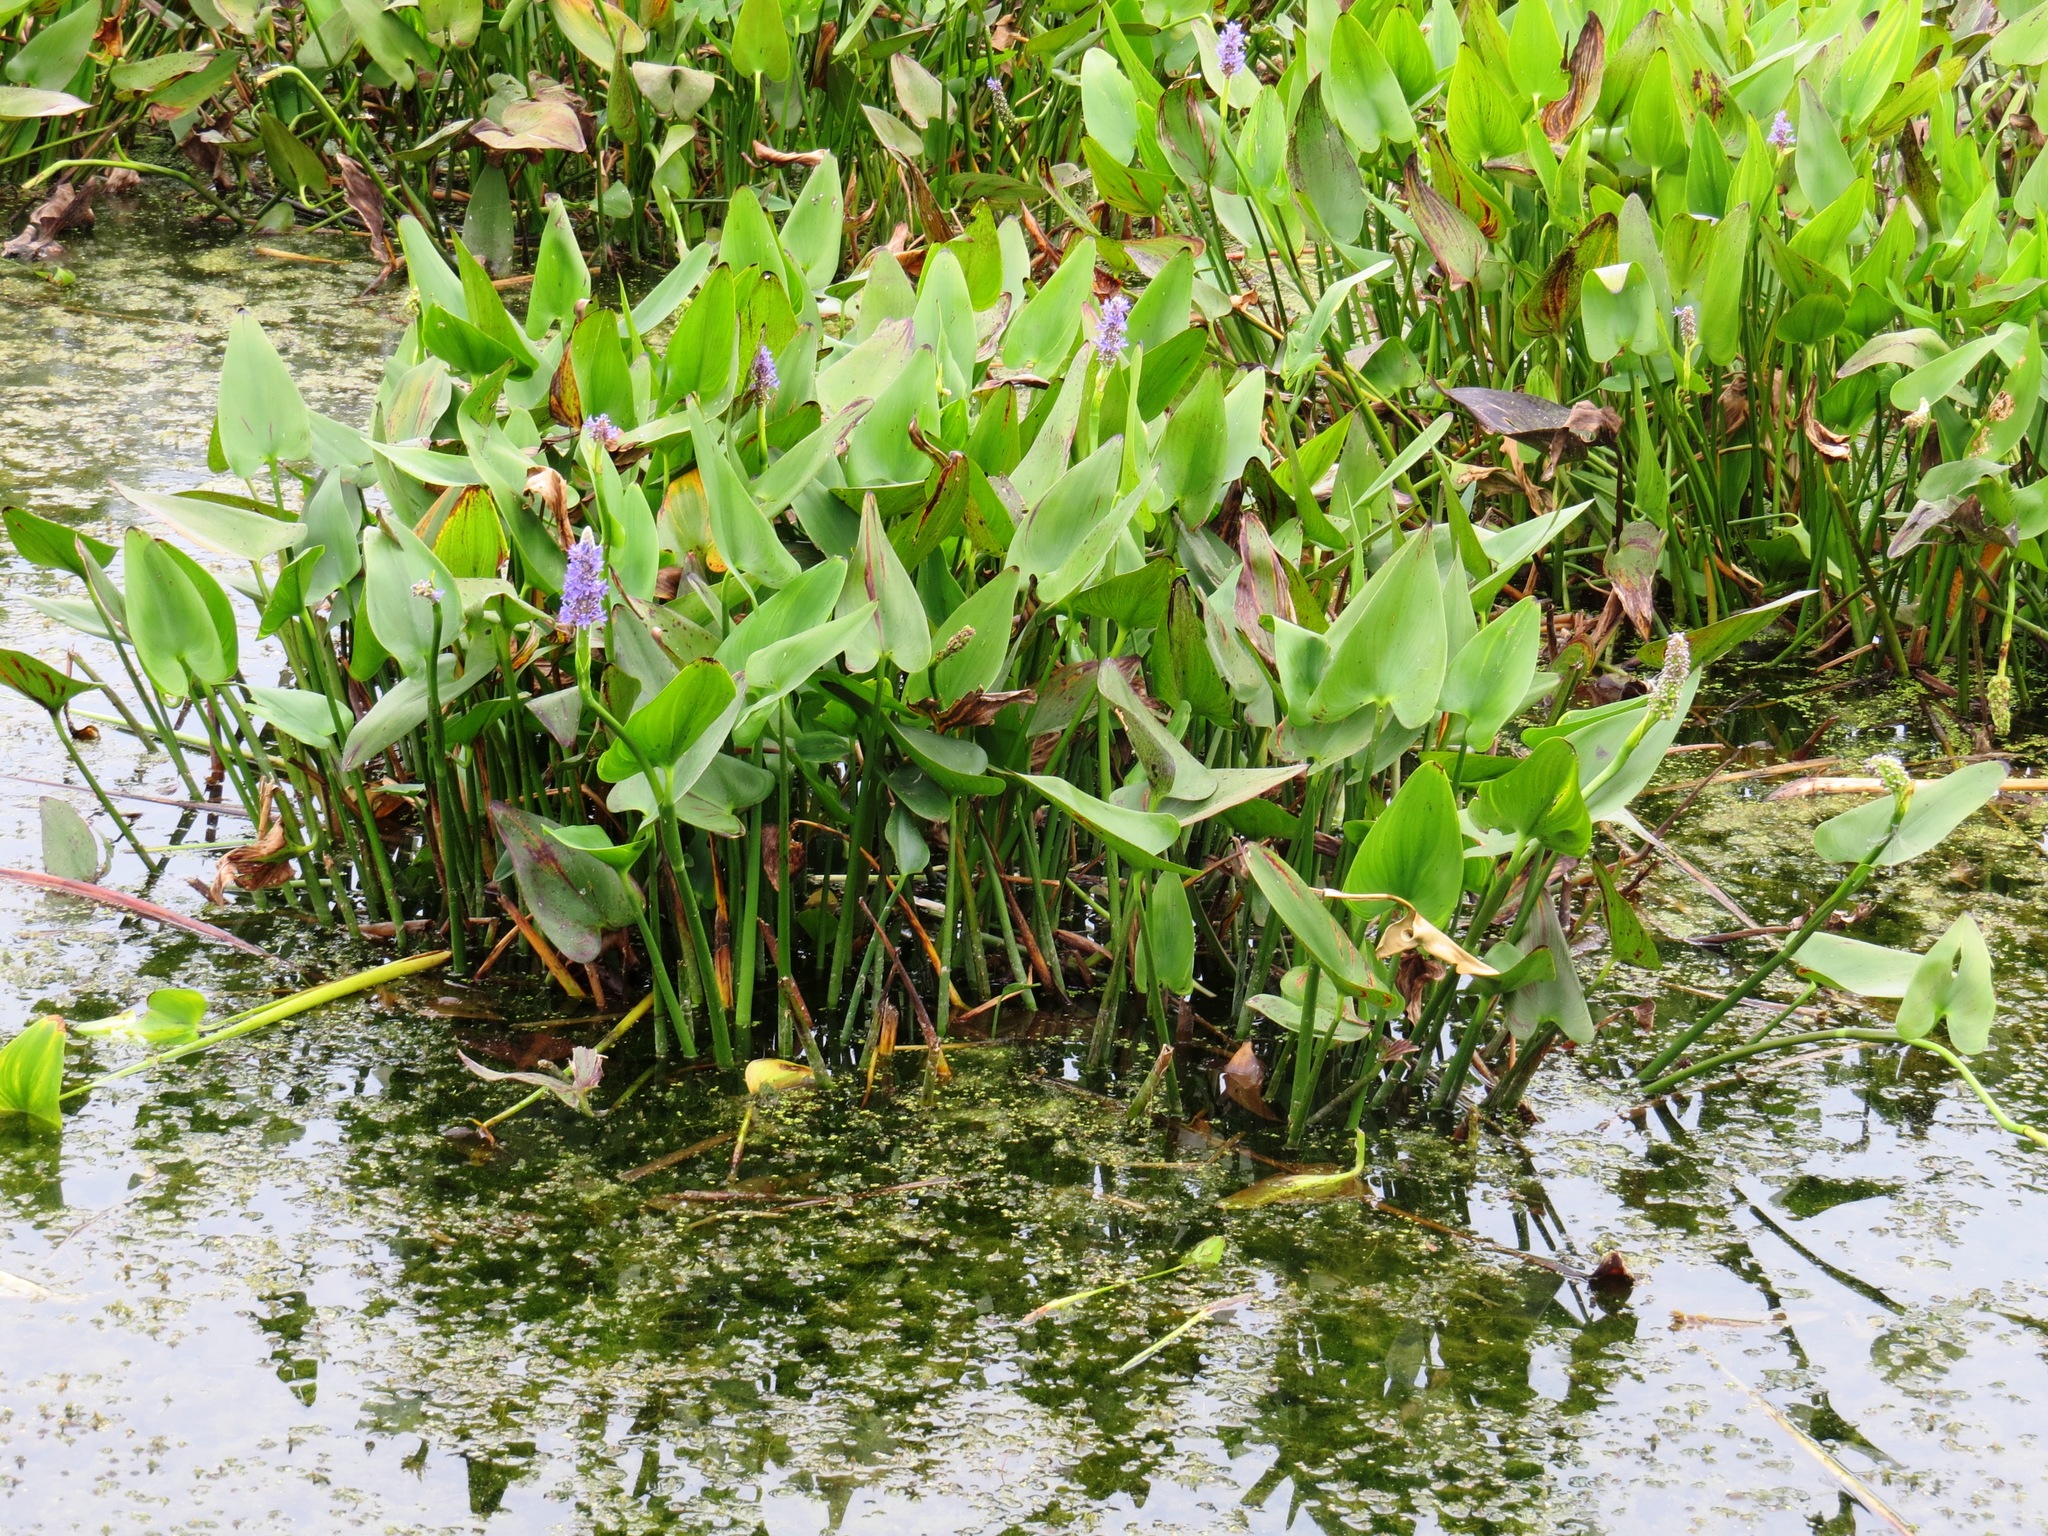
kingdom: Plantae
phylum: Tracheophyta
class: Liliopsida
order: Commelinales
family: Pontederiaceae
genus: Pontederia
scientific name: Pontederia cordata
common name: Pickerelweed
